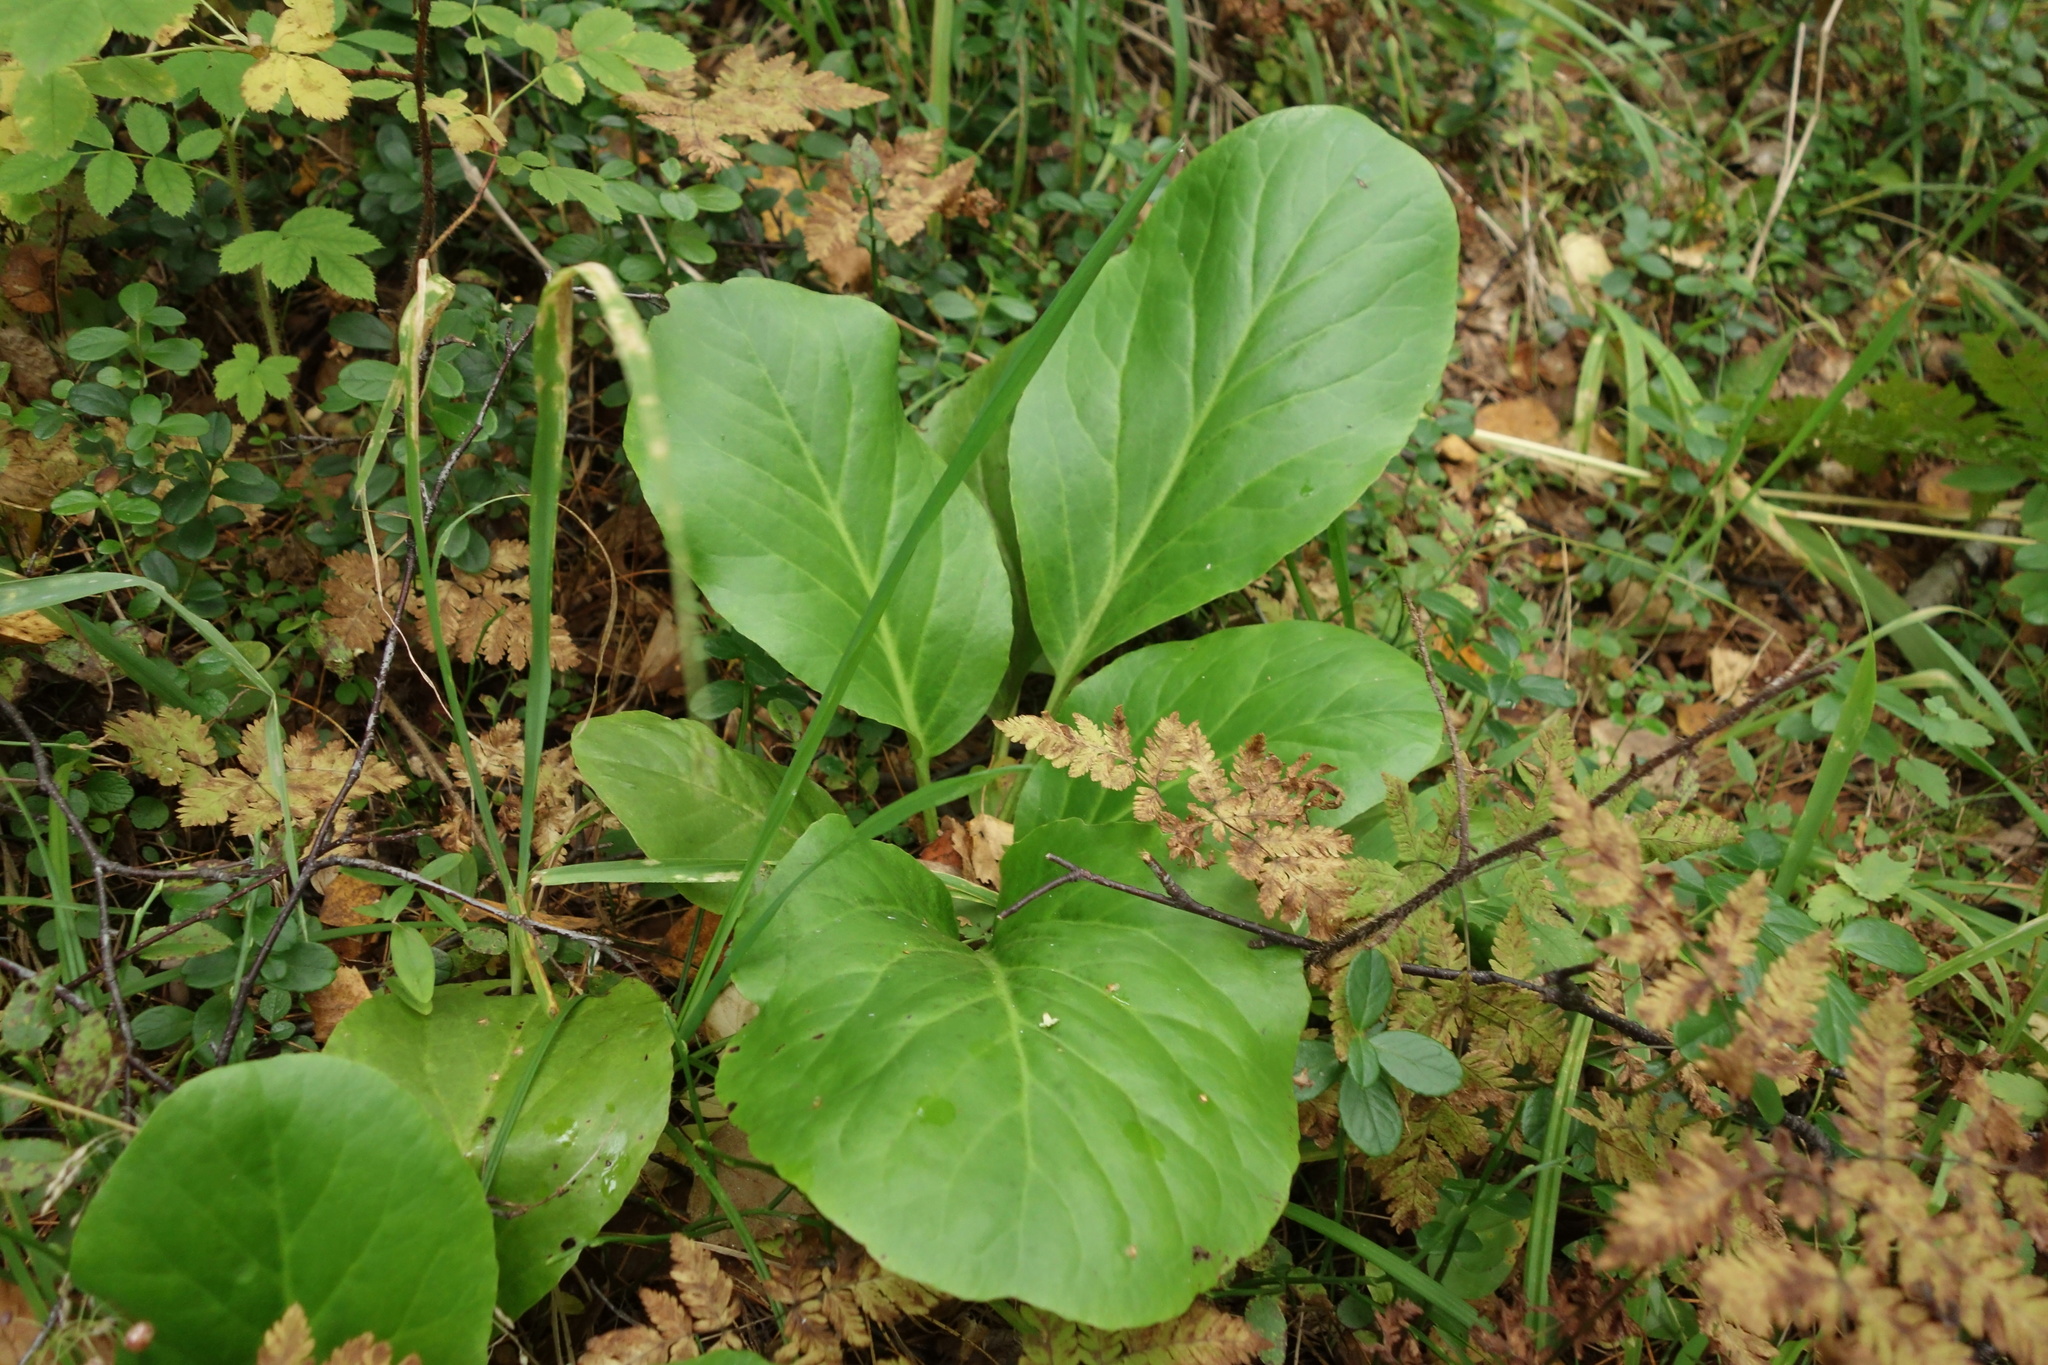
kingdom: Plantae
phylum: Tracheophyta
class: Magnoliopsida
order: Saxifragales
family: Saxifragaceae
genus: Bergenia
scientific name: Bergenia crassifolia
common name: Elephant-ears
